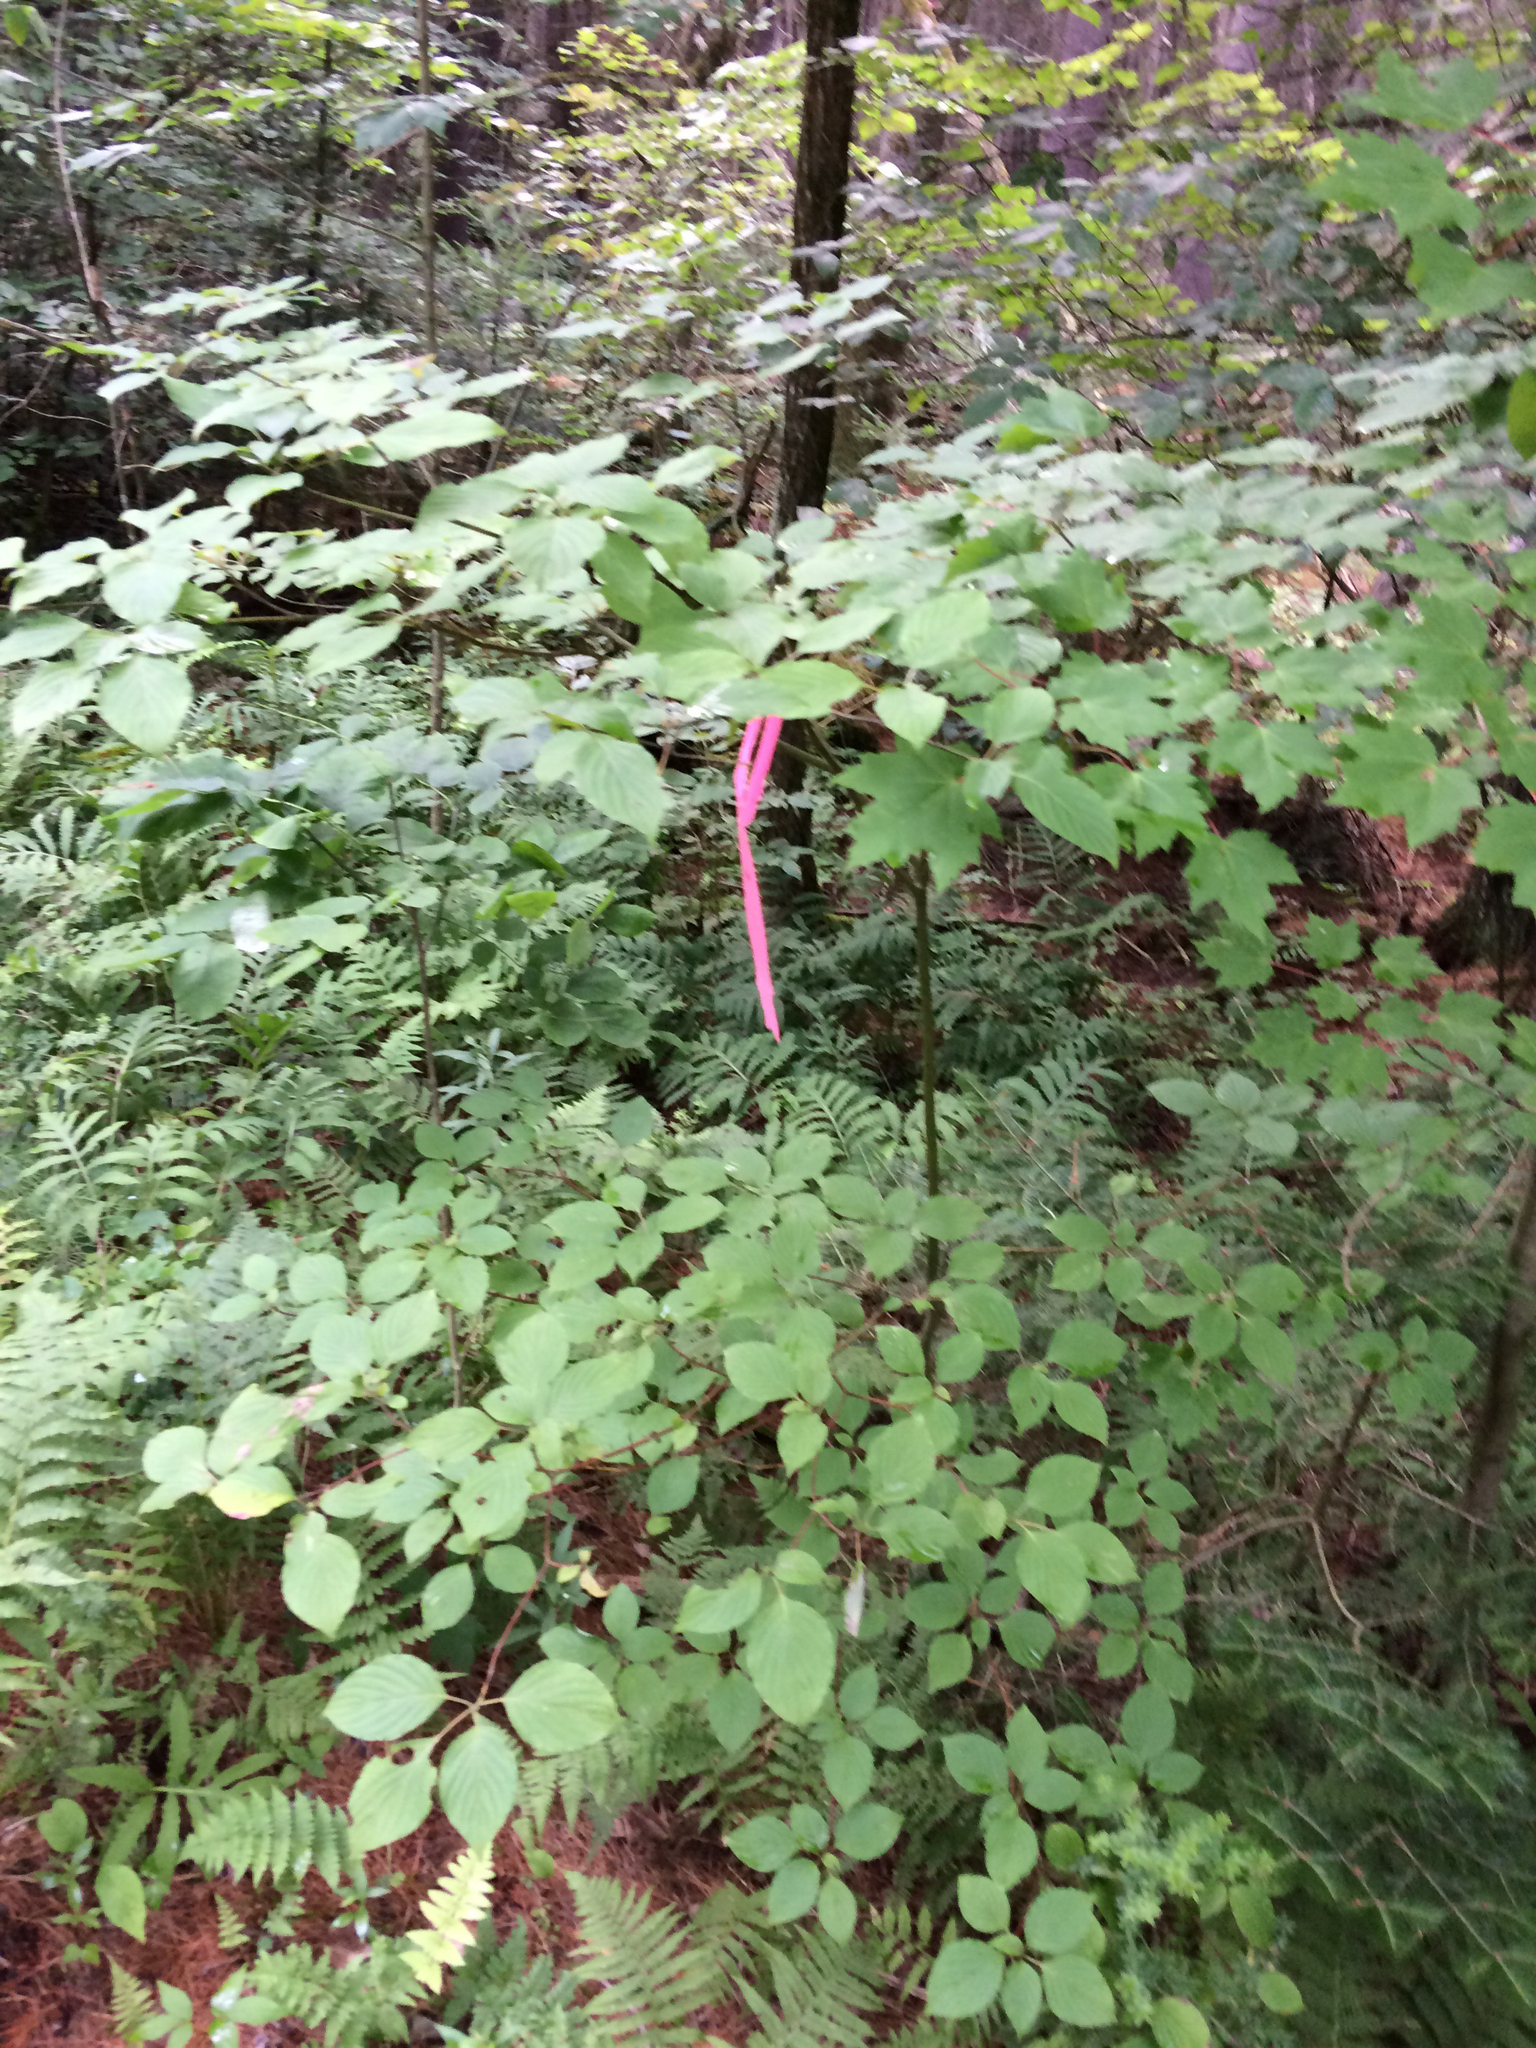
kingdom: Plantae
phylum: Tracheophyta
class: Magnoliopsida
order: Cornales
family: Cornaceae
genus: Cornus
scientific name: Cornus alternifolia
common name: Pagoda dogwood
